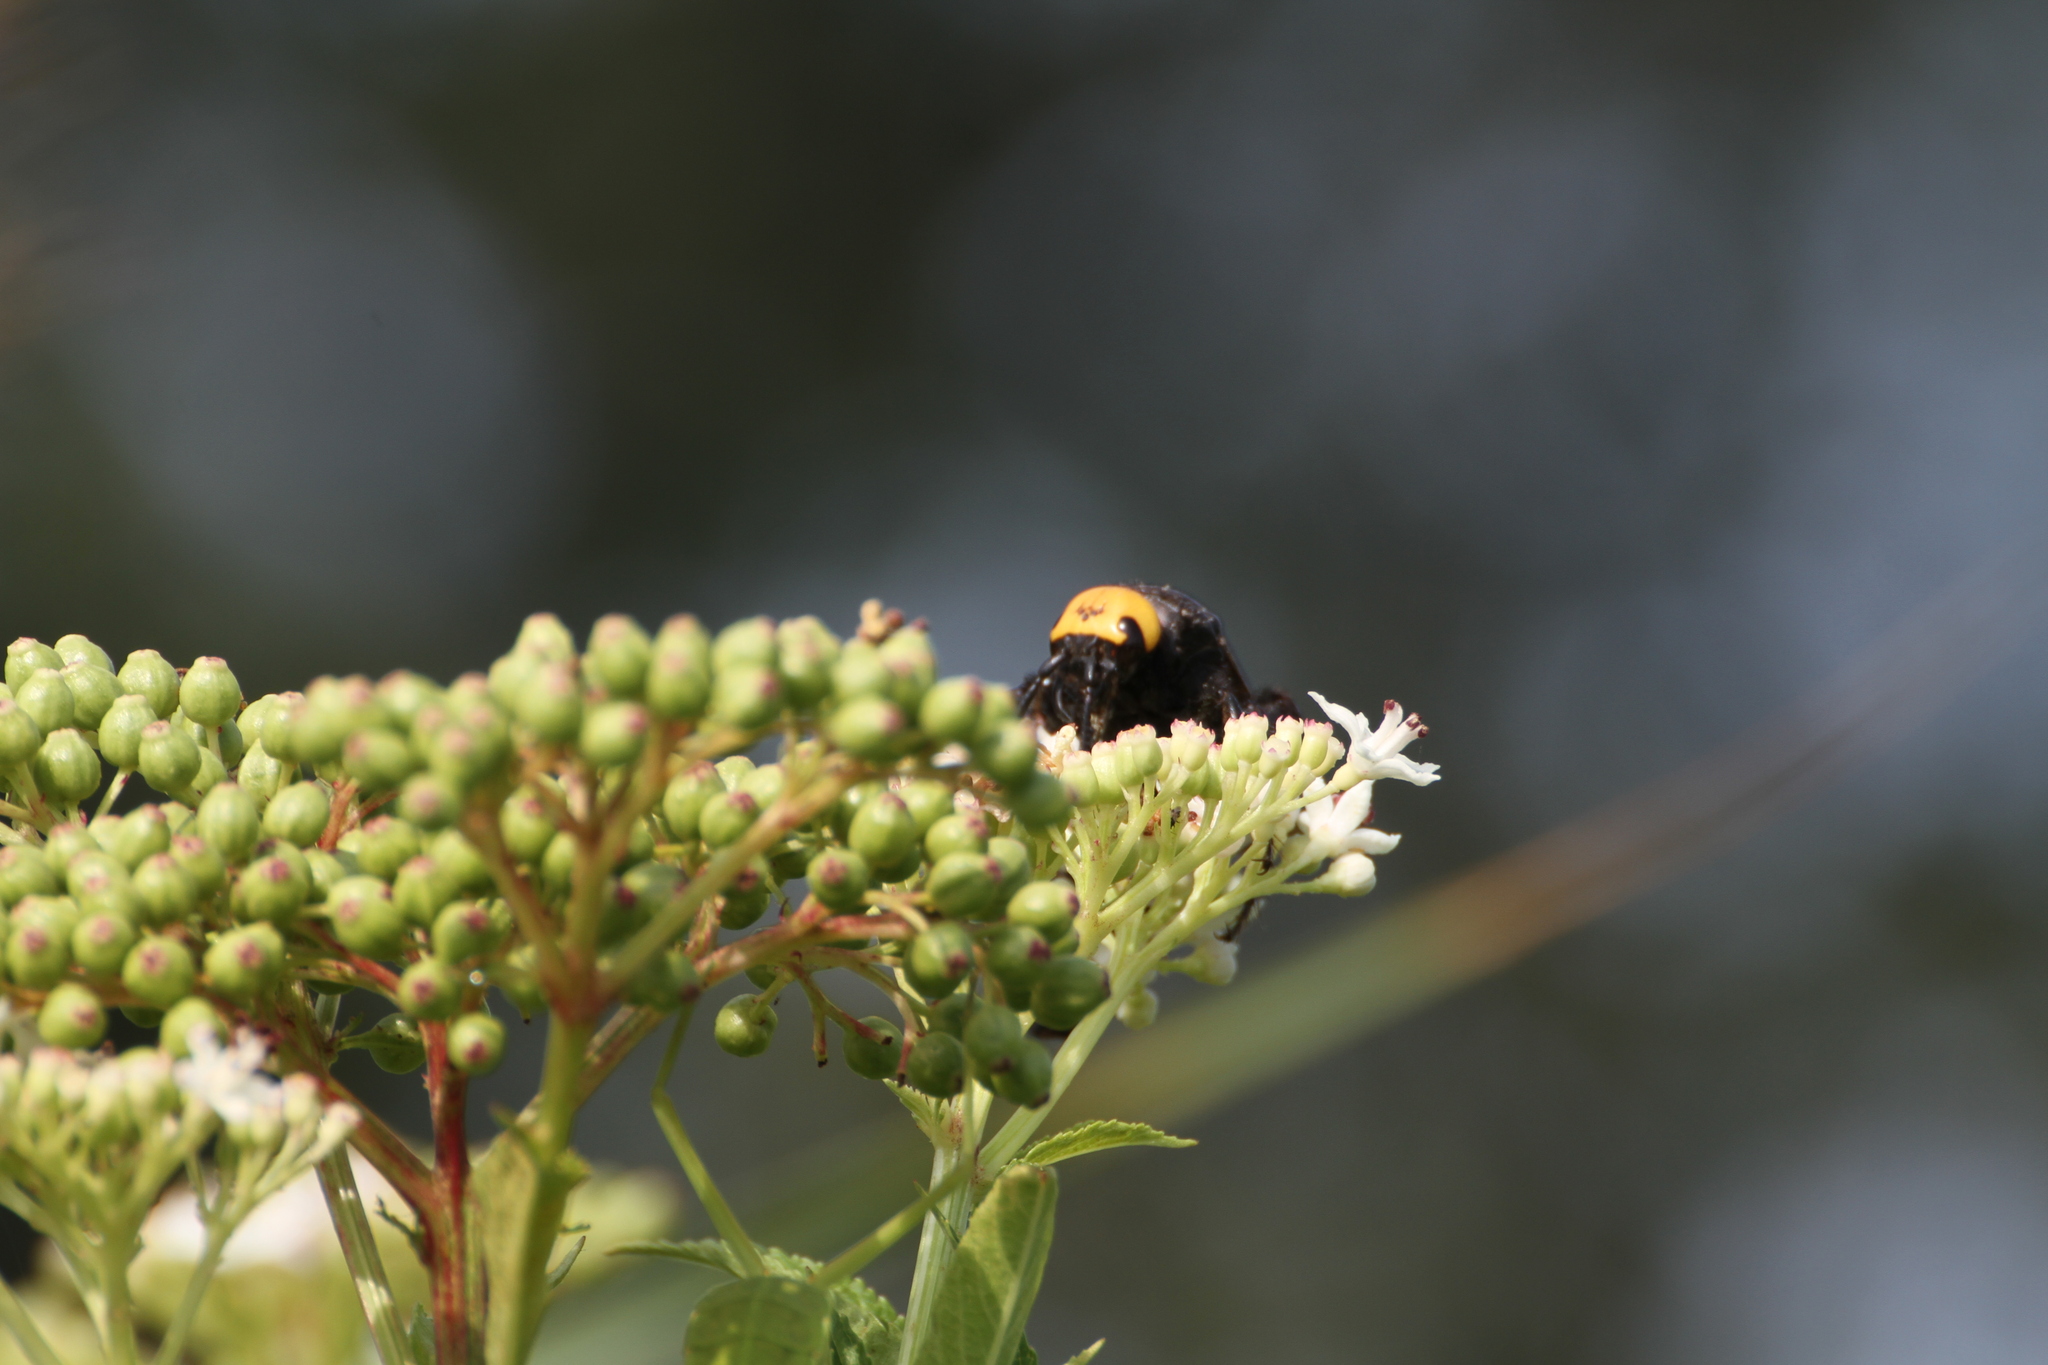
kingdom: Animalia
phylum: Arthropoda
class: Insecta
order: Hymenoptera
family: Scoliidae
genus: Megascolia
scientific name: Megascolia maculata
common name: Mammoth wasp
